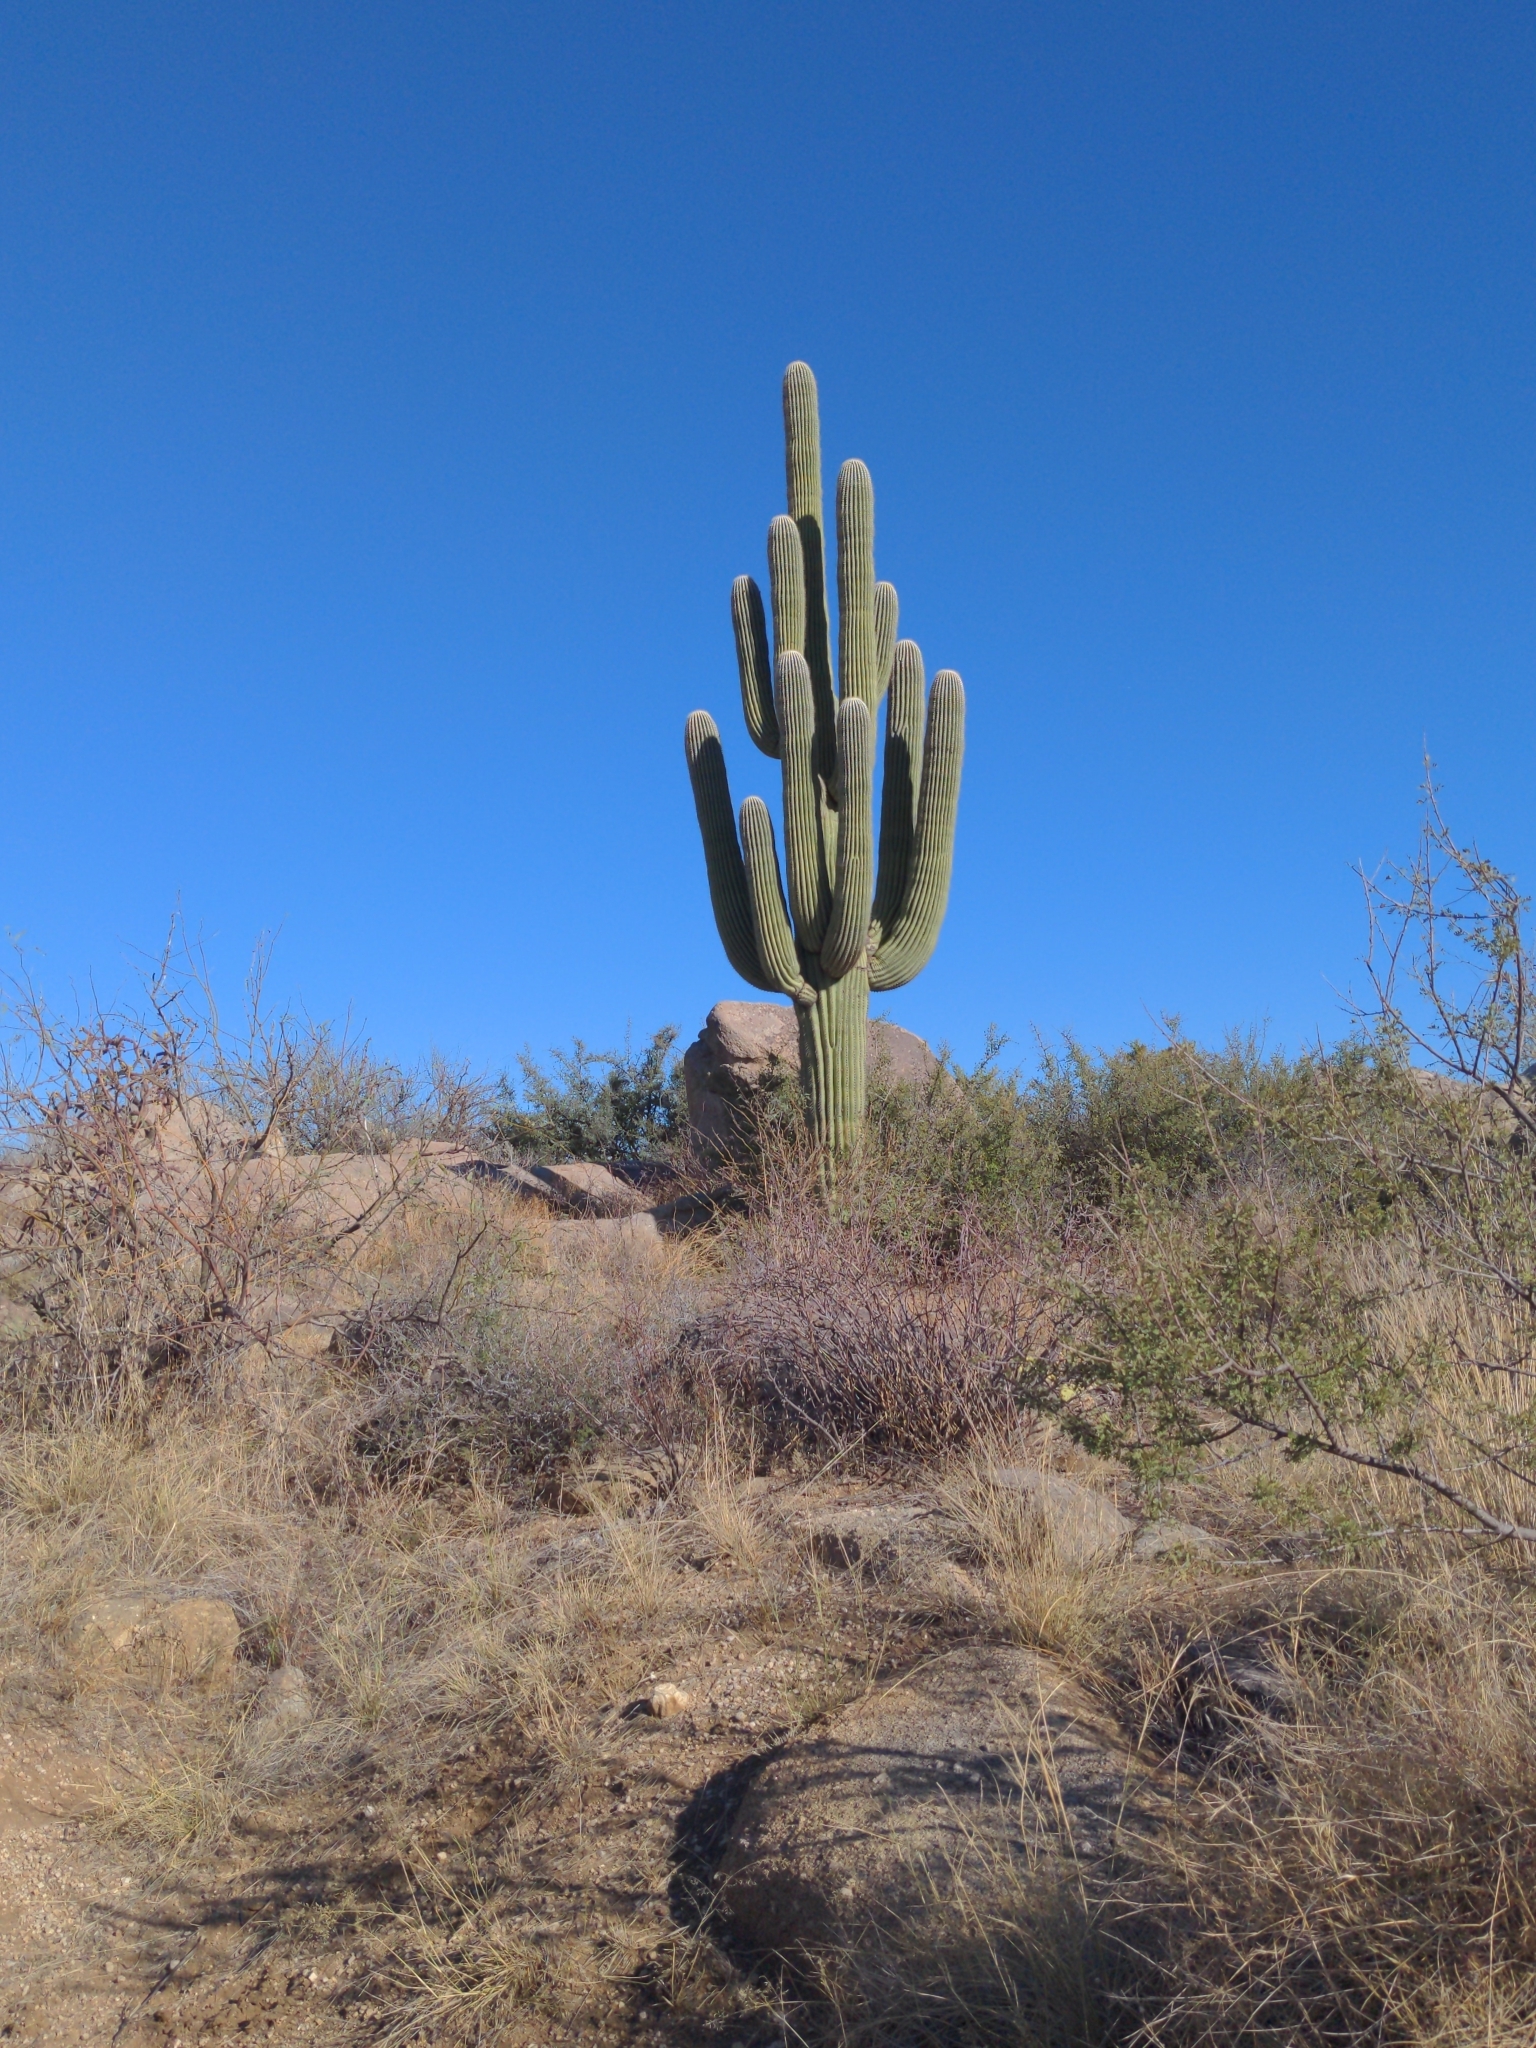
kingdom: Plantae
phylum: Tracheophyta
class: Magnoliopsida
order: Caryophyllales
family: Cactaceae
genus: Carnegiea
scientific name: Carnegiea gigantea
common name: Saguaro
